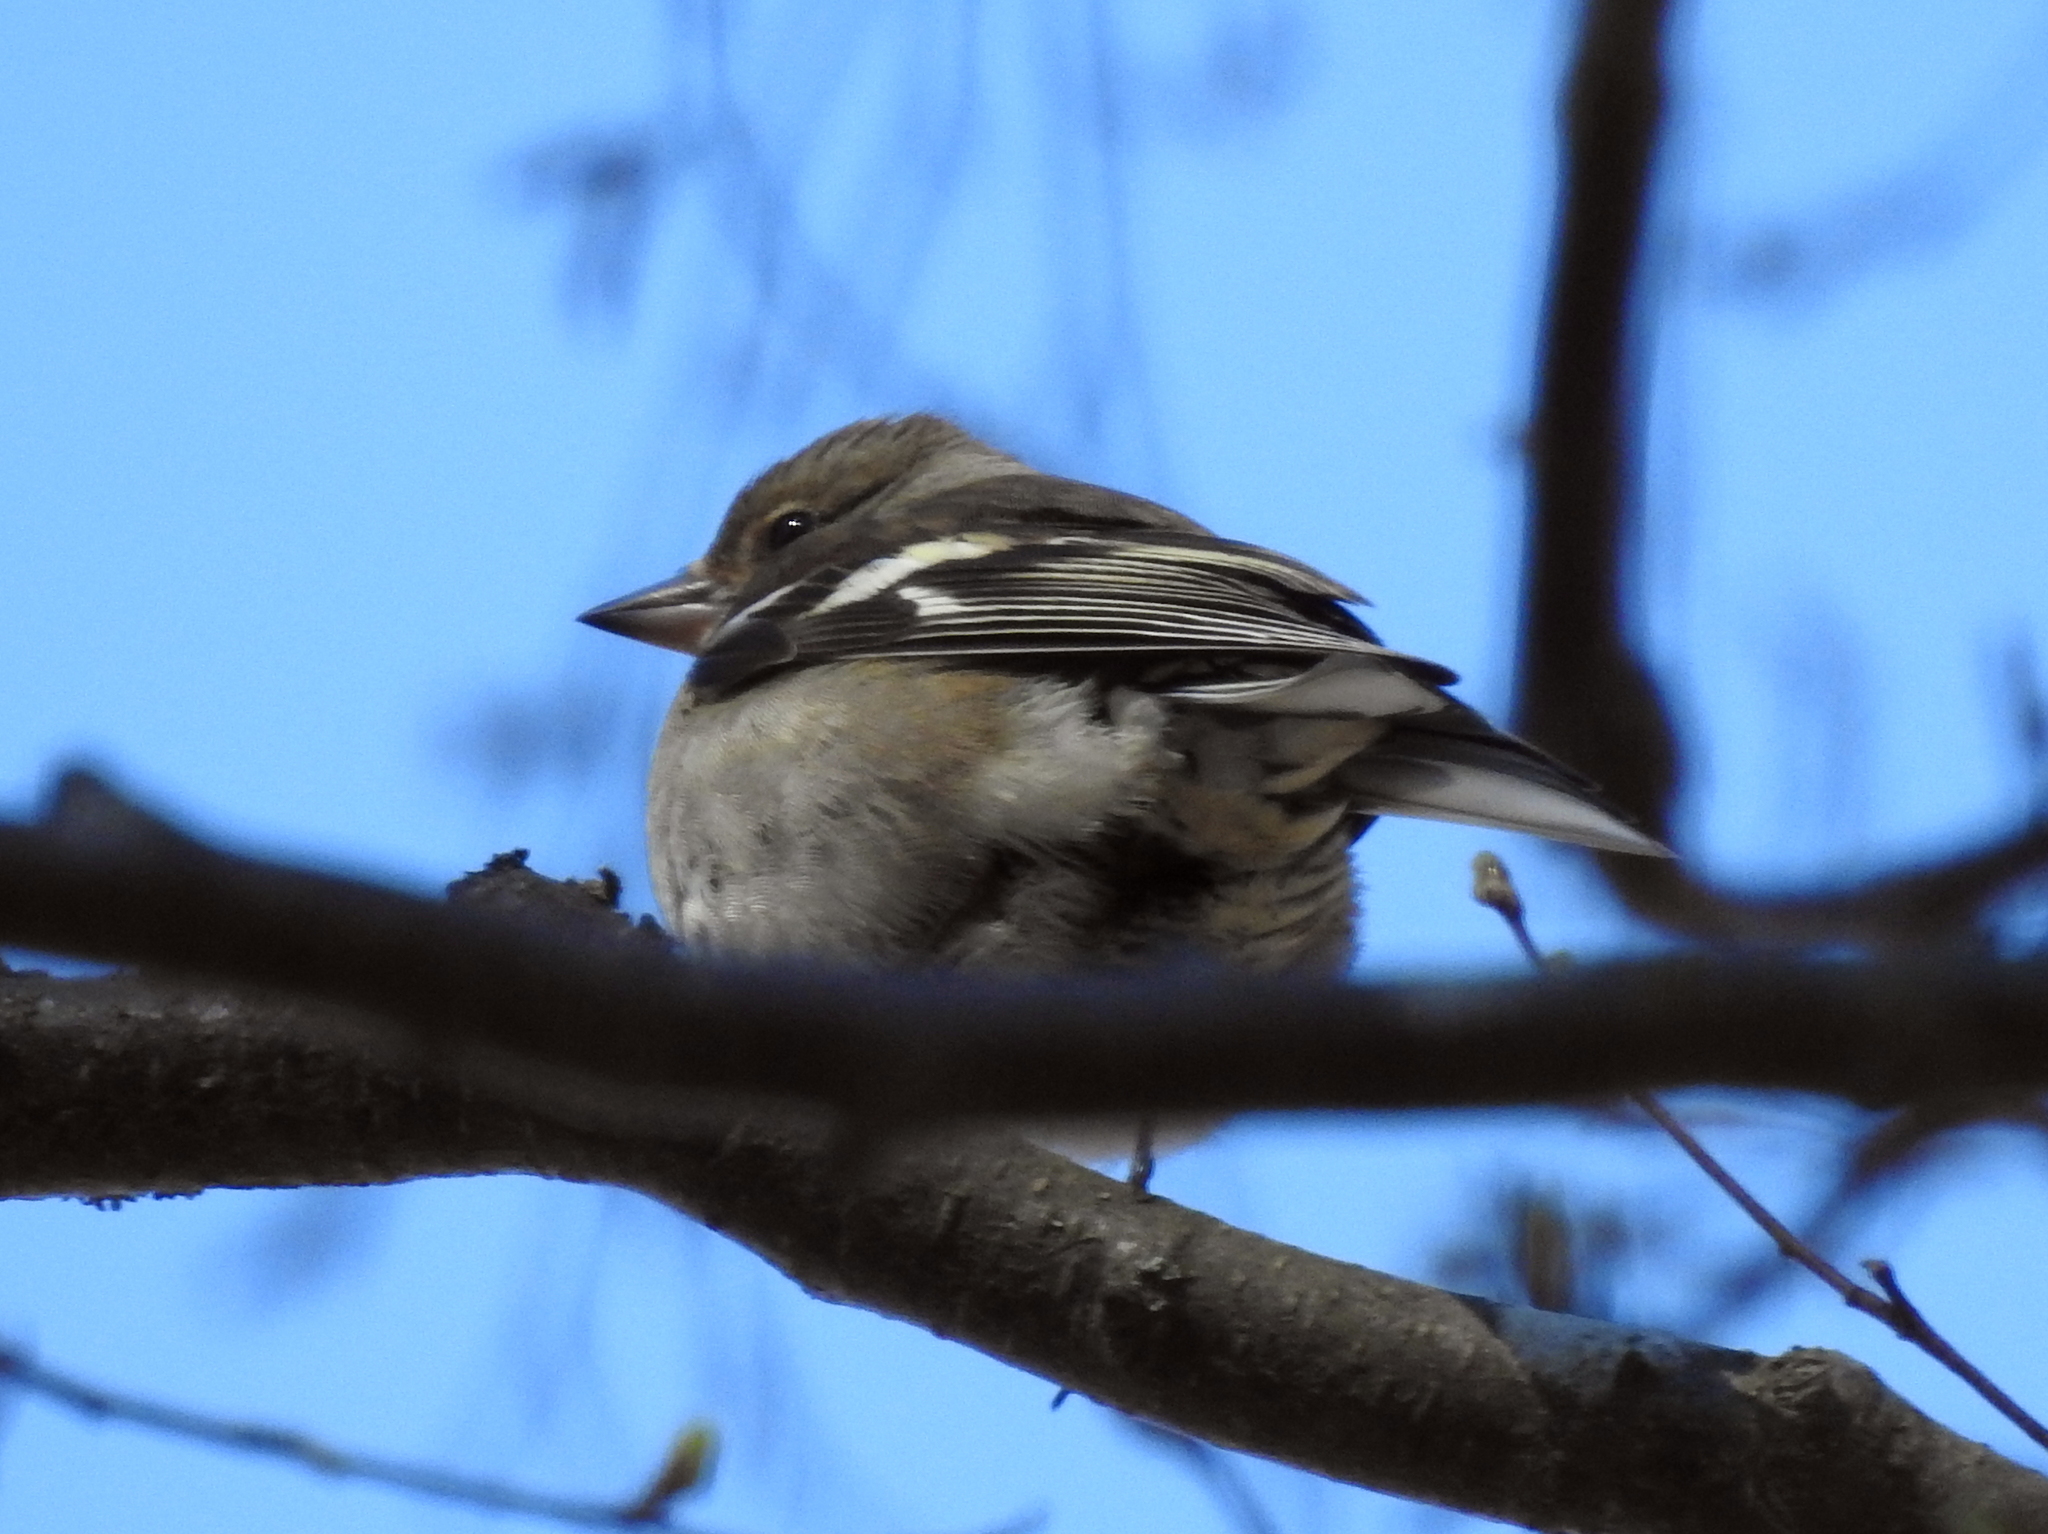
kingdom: Animalia
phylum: Chordata
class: Aves
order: Passeriformes
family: Fringillidae
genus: Fringilla
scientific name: Fringilla coelebs
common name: Common chaffinch
